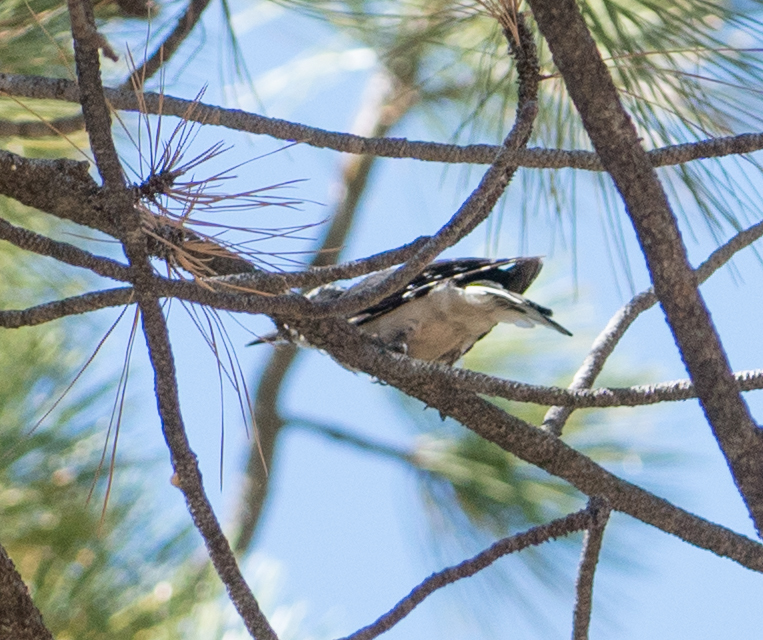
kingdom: Animalia
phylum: Chordata
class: Aves
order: Piciformes
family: Picidae
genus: Leuconotopicus
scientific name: Leuconotopicus villosus
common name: Hairy woodpecker
